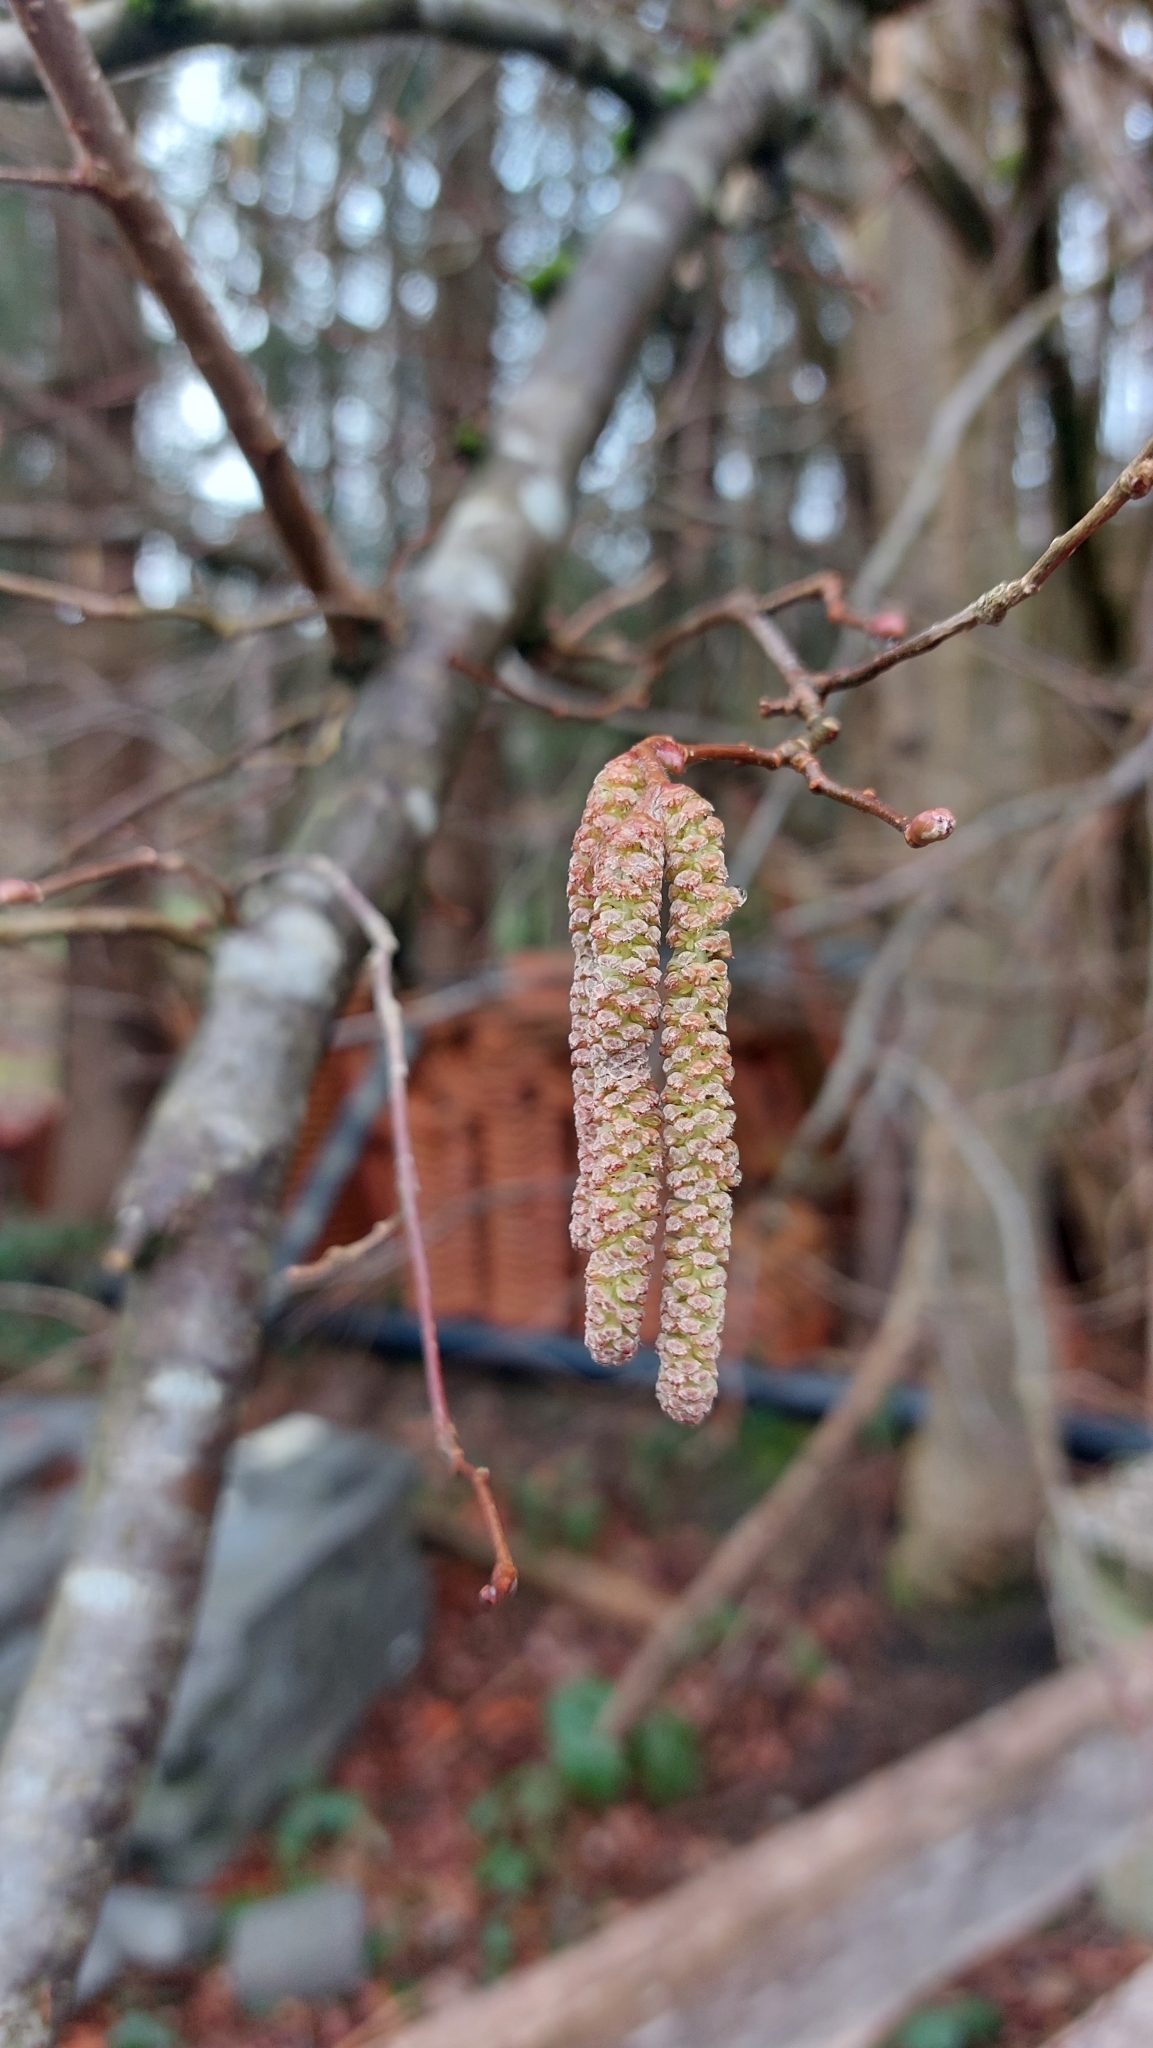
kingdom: Plantae
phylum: Tracheophyta
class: Magnoliopsida
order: Fagales
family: Betulaceae
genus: Corylus
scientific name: Corylus avellana
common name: European hazel
